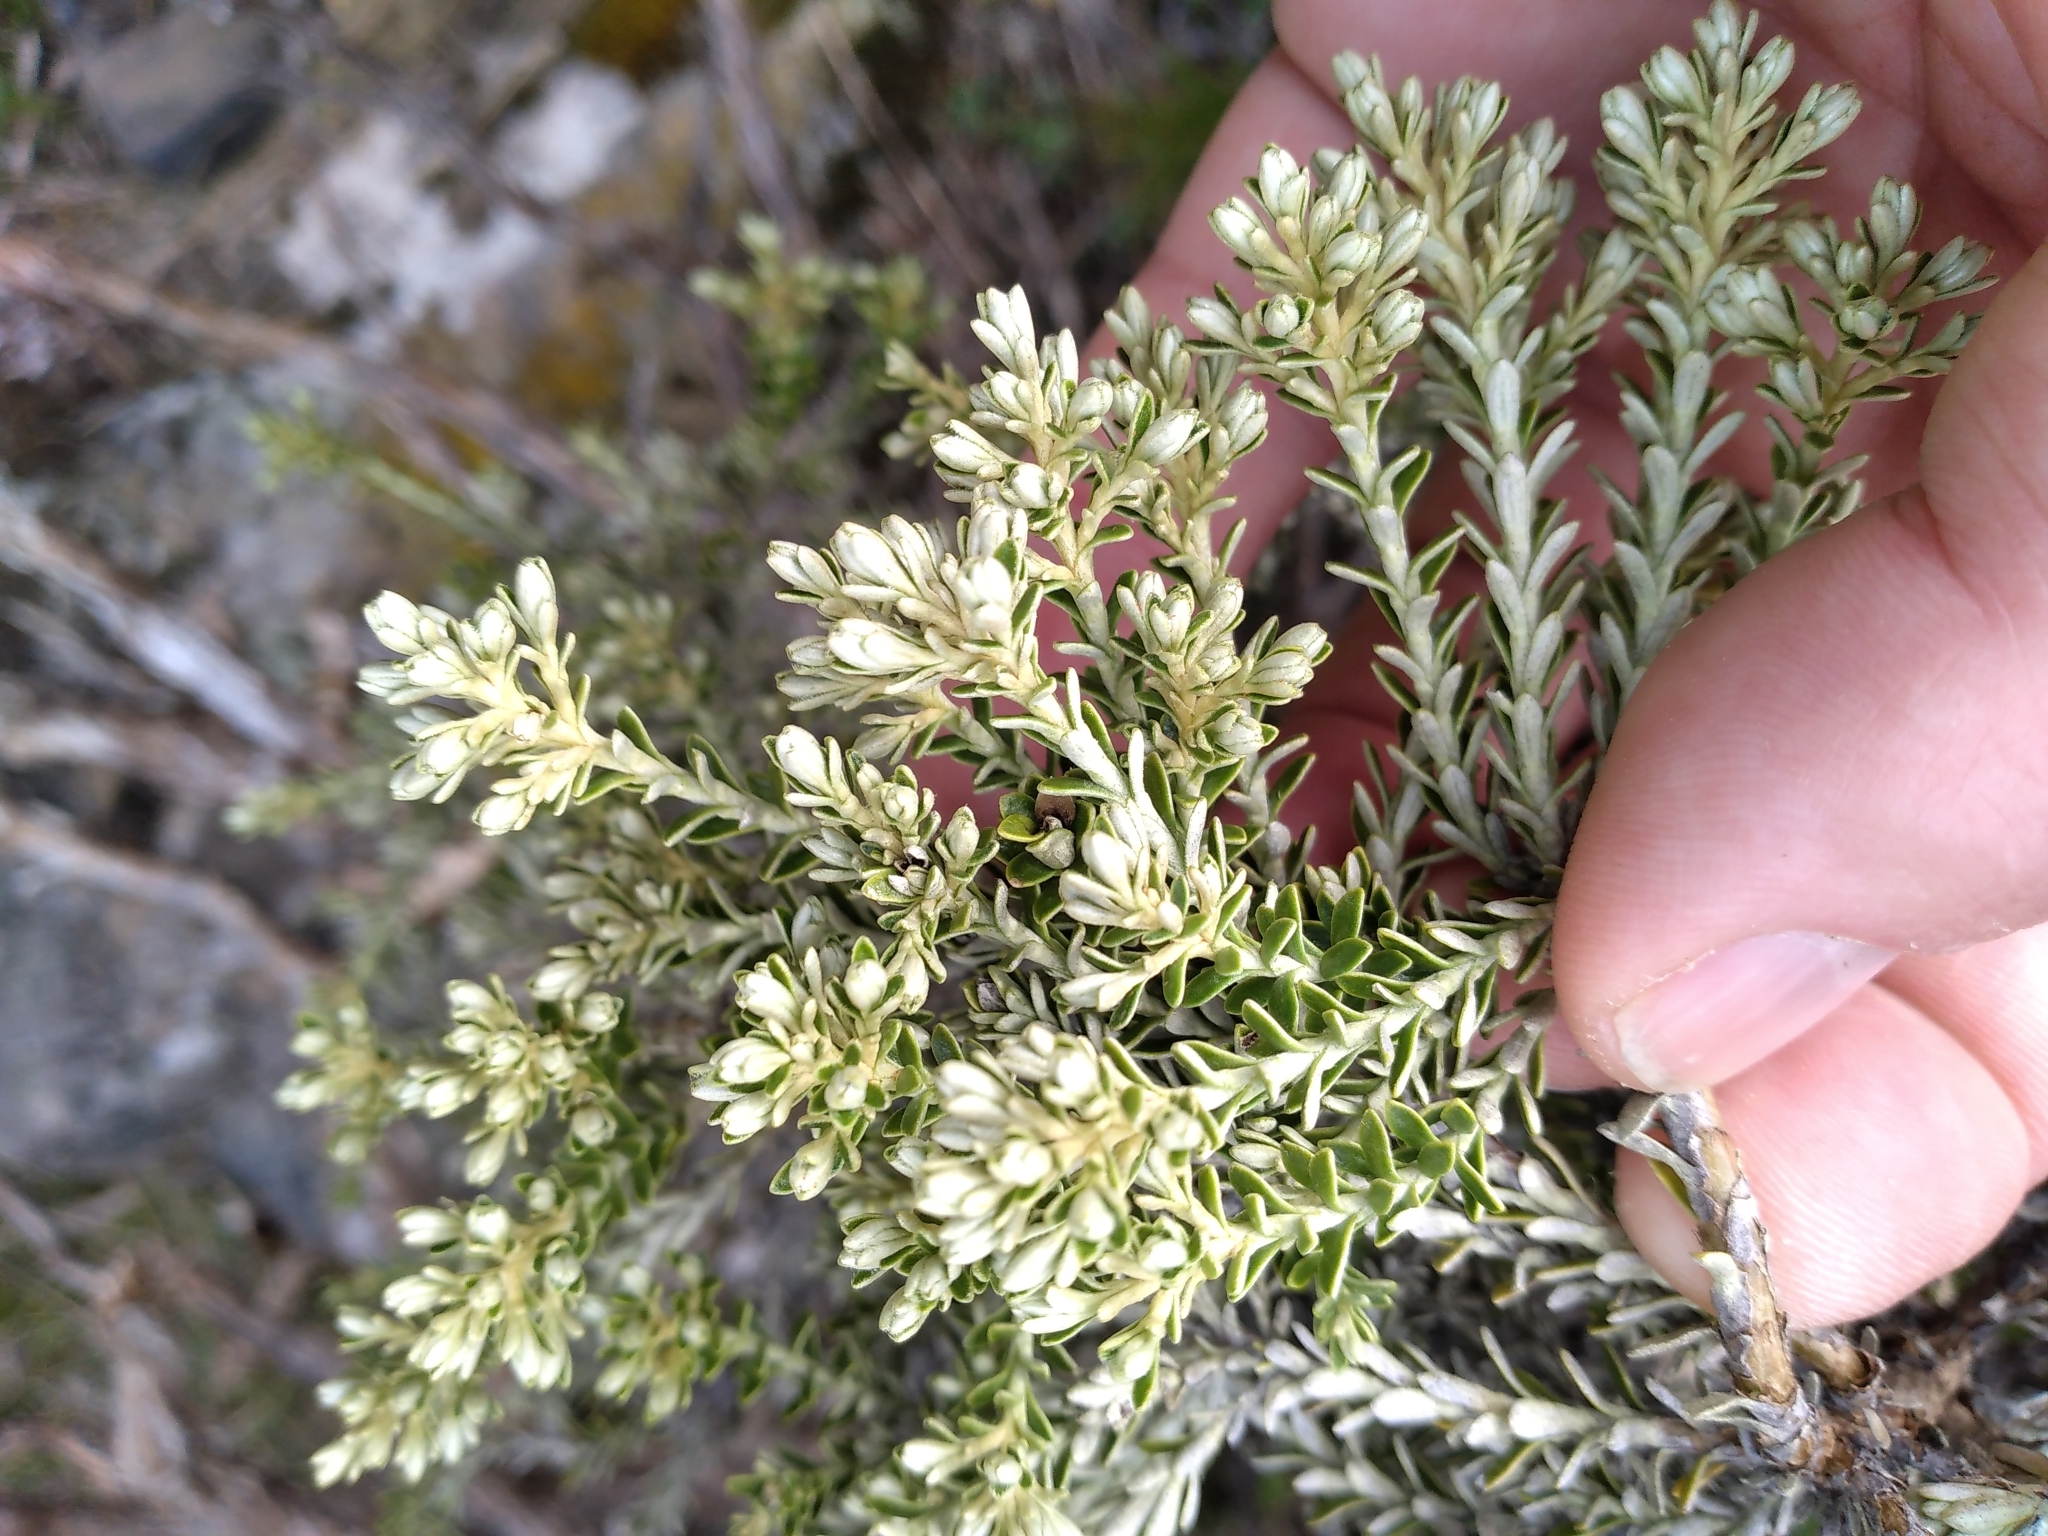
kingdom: Plantae
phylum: Tracheophyta
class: Magnoliopsida
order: Asterales
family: Asteraceae
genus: Brachyglottis
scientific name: Brachyglottis cassinioides
